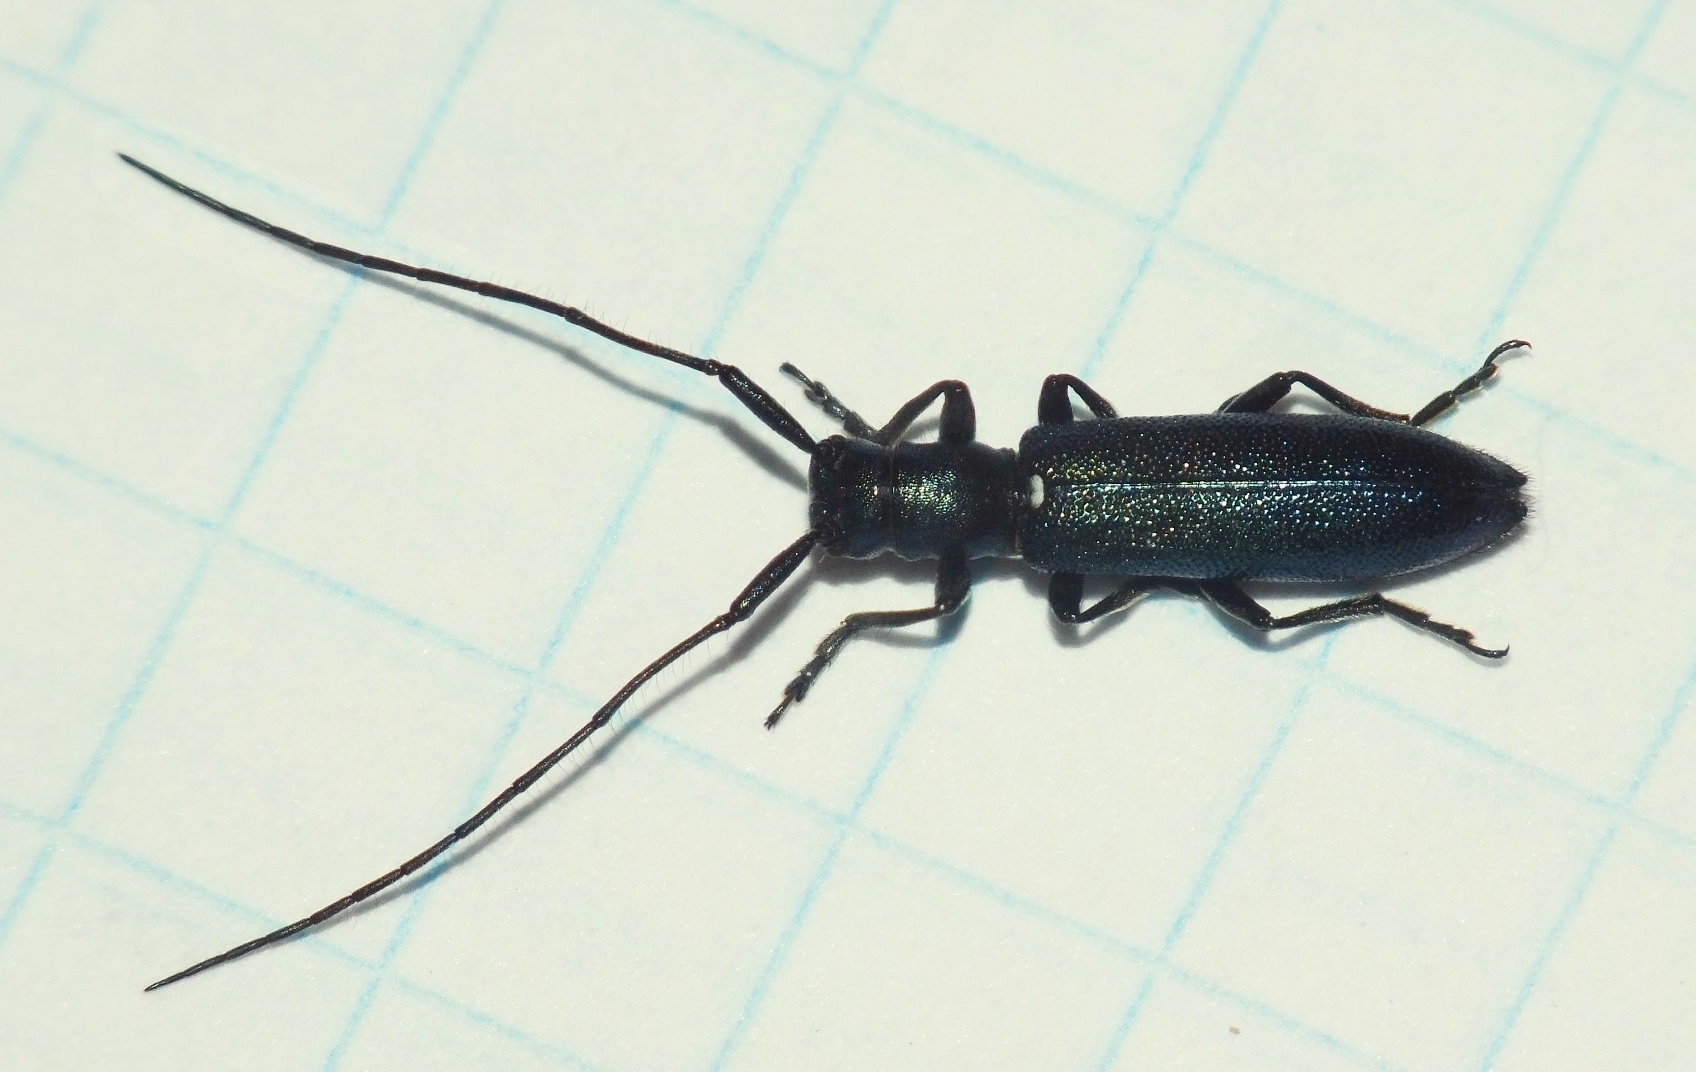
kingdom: Animalia
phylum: Arthropoda
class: Insecta
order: Coleoptera
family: Cerambycidae
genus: Agapanthiola
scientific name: Agapanthiola leucaspis
